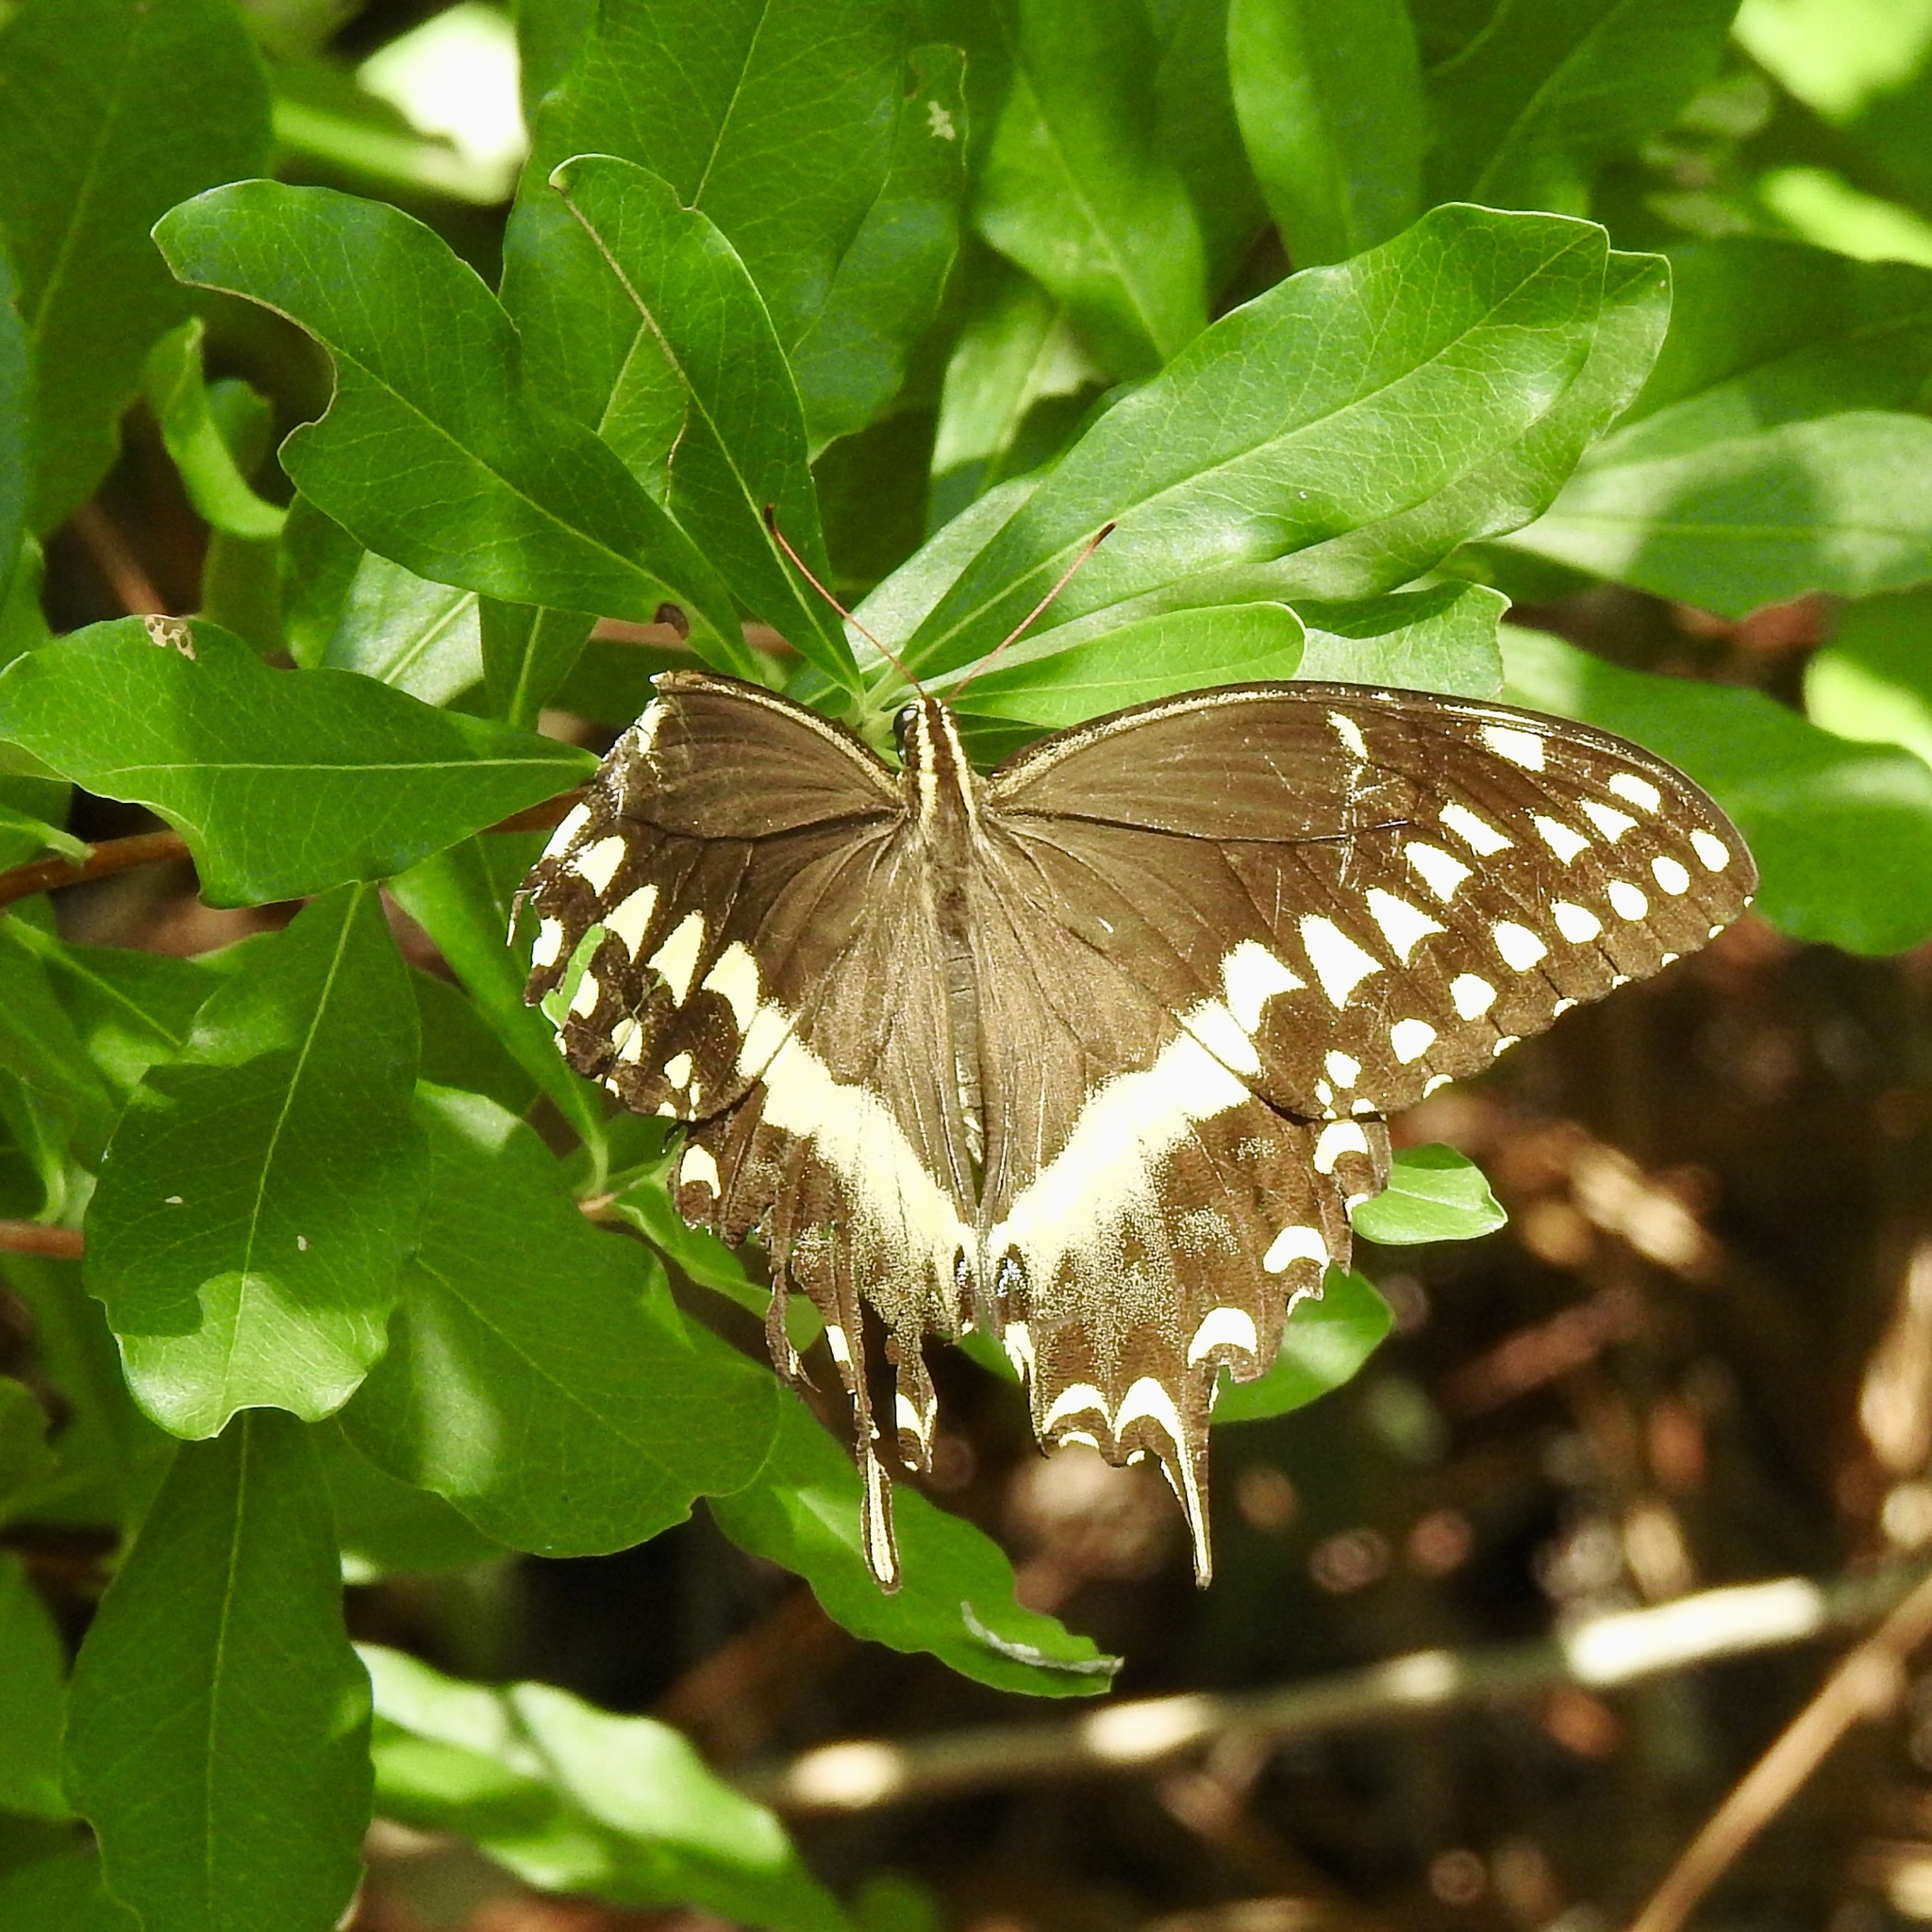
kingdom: Animalia
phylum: Arthropoda
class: Insecta
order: Lepidoptera
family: Papilionidae
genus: Papilio
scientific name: Papilio palamedes
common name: Palamedes swallowtail
